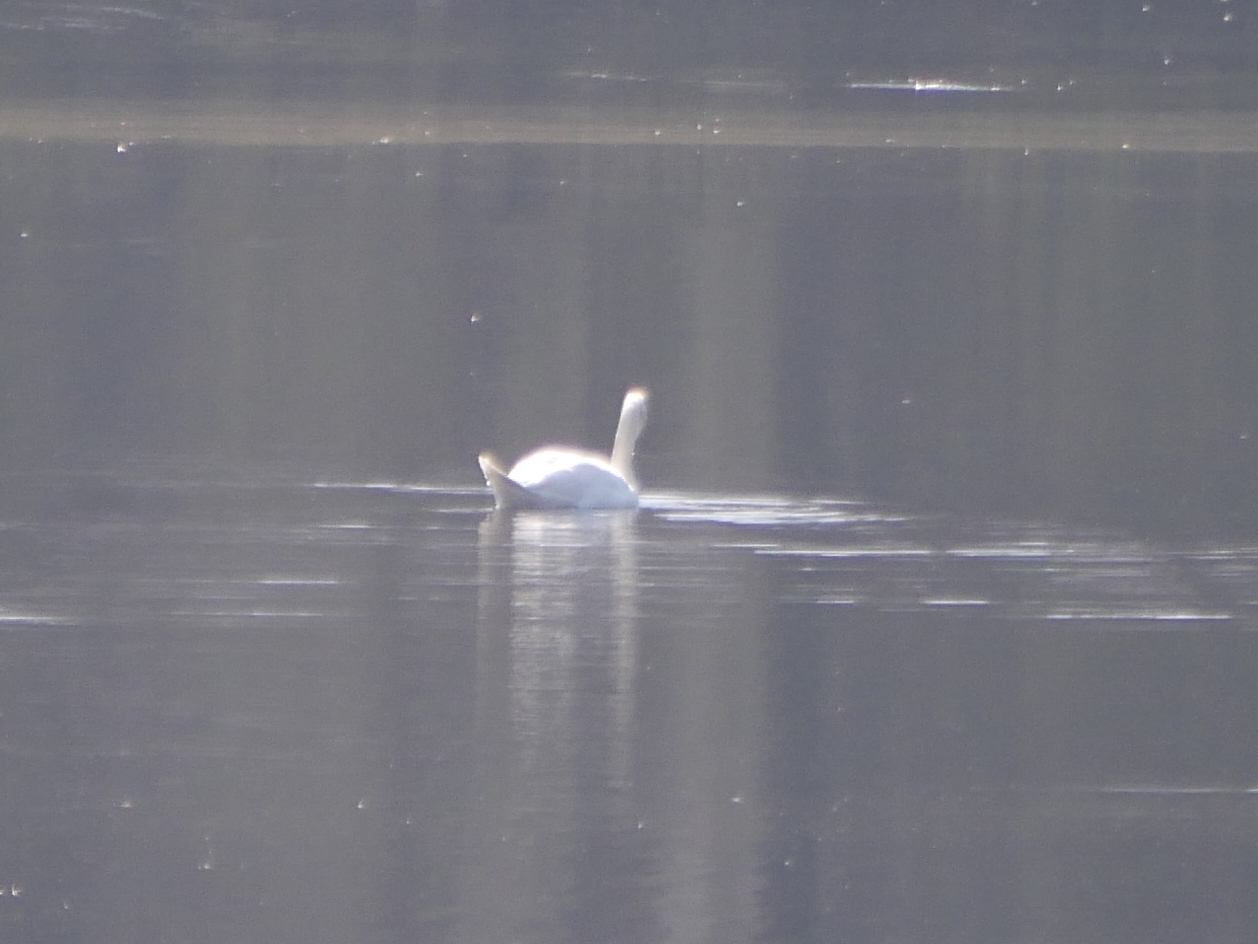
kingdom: Animalia
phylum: Chordata
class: Aves
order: Anseriformes
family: Anatidae
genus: Cygnus
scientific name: Cygnus olor
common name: Mute swan
